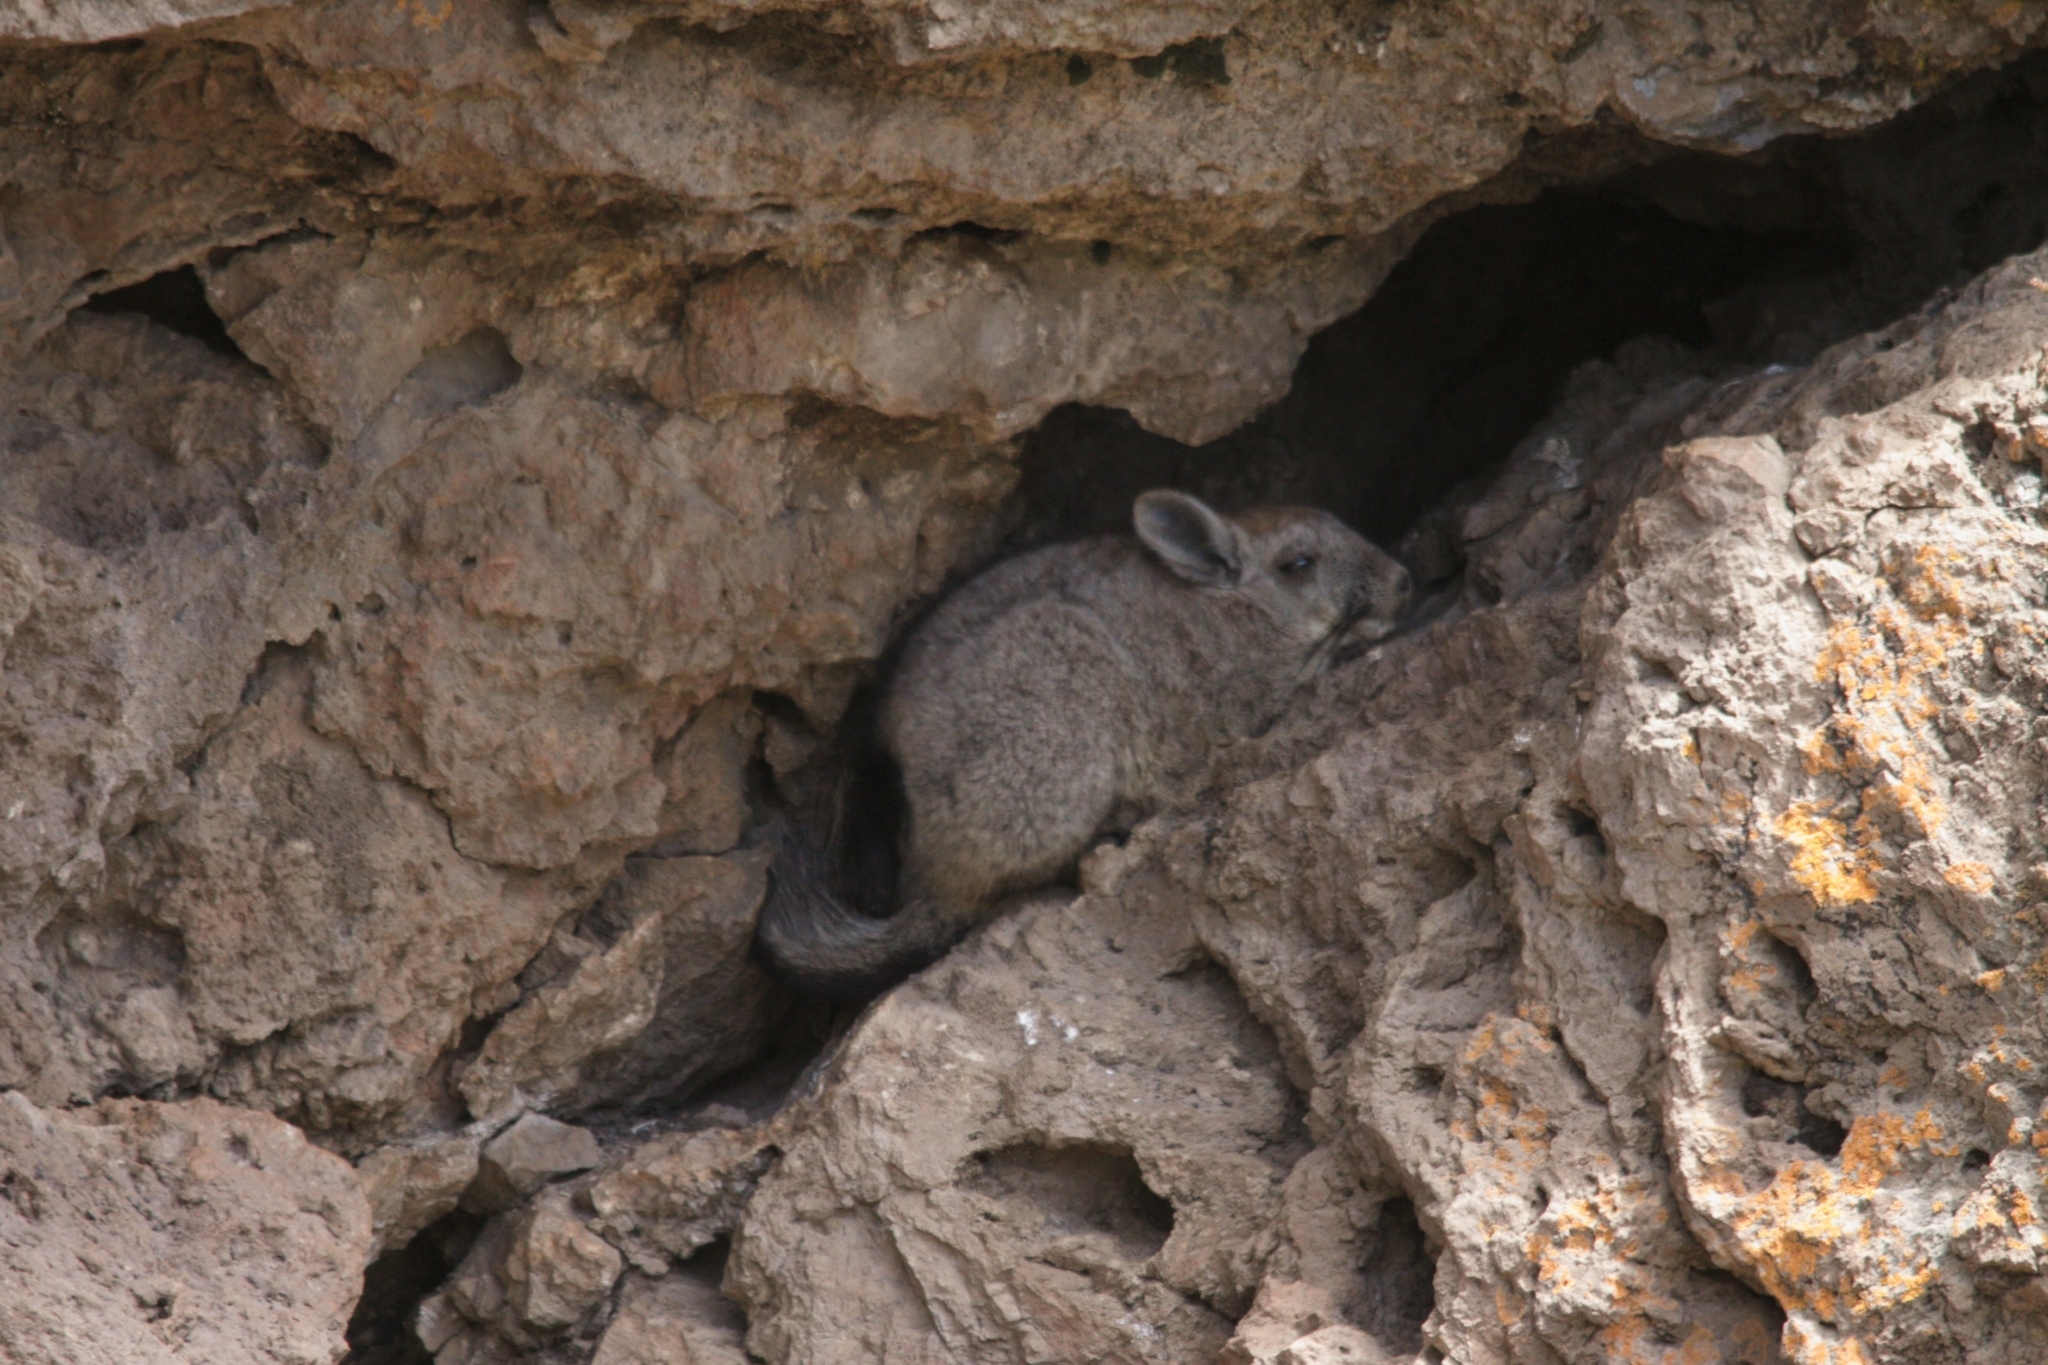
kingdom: Animalia
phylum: Chordata
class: Mammalia
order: Rodentia
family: Chinchillidae
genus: Lagidium
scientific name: Lagidium viscacia
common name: Southern viscacha
